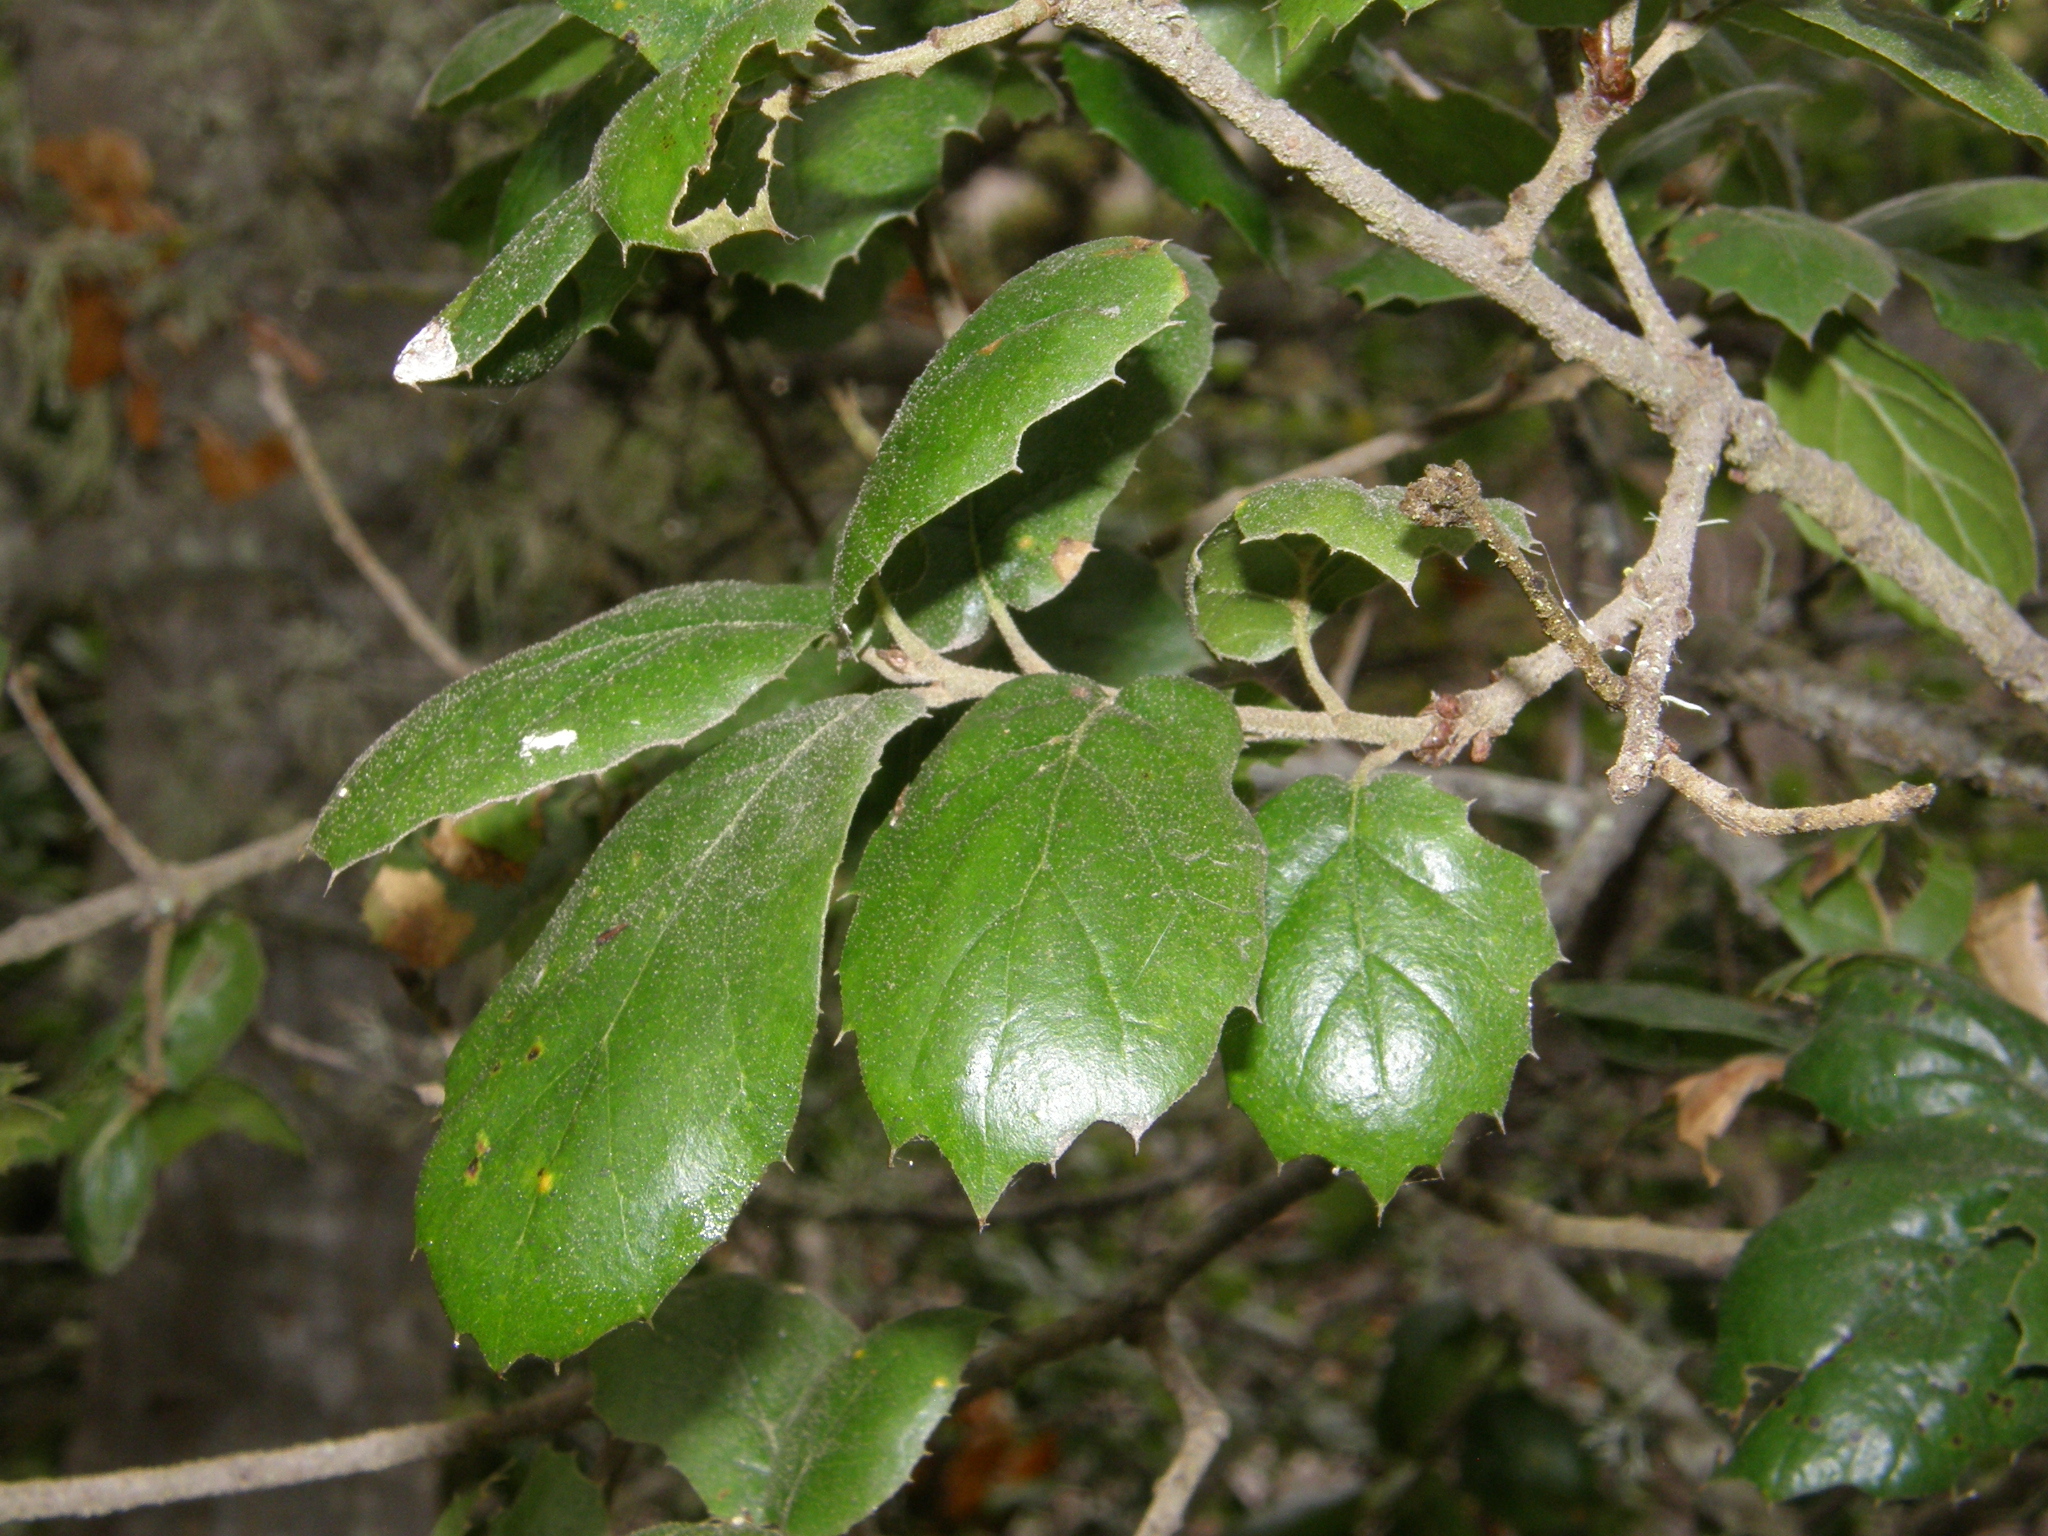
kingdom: Plantae
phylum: Tracheophyta
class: Magnoliopsida
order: Fagales
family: Fagaceae
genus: Quercus
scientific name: Quercus agrifolia
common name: California live oak
